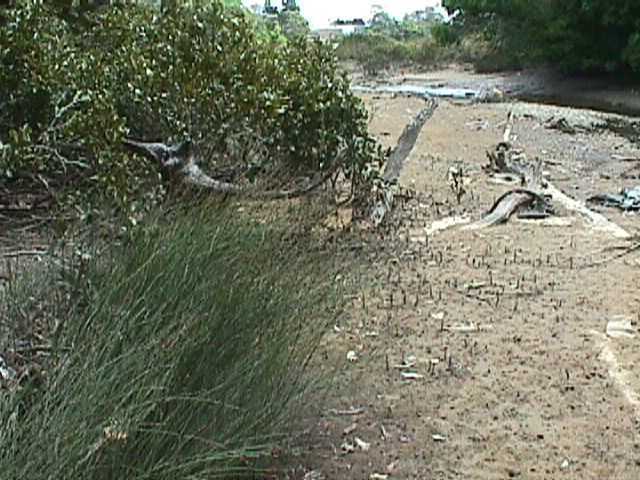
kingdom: Plantae
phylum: Tracheophyta
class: Liliopsida
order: Poales
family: Restionaceae
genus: Apodasmia
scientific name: Apodasmia similis
